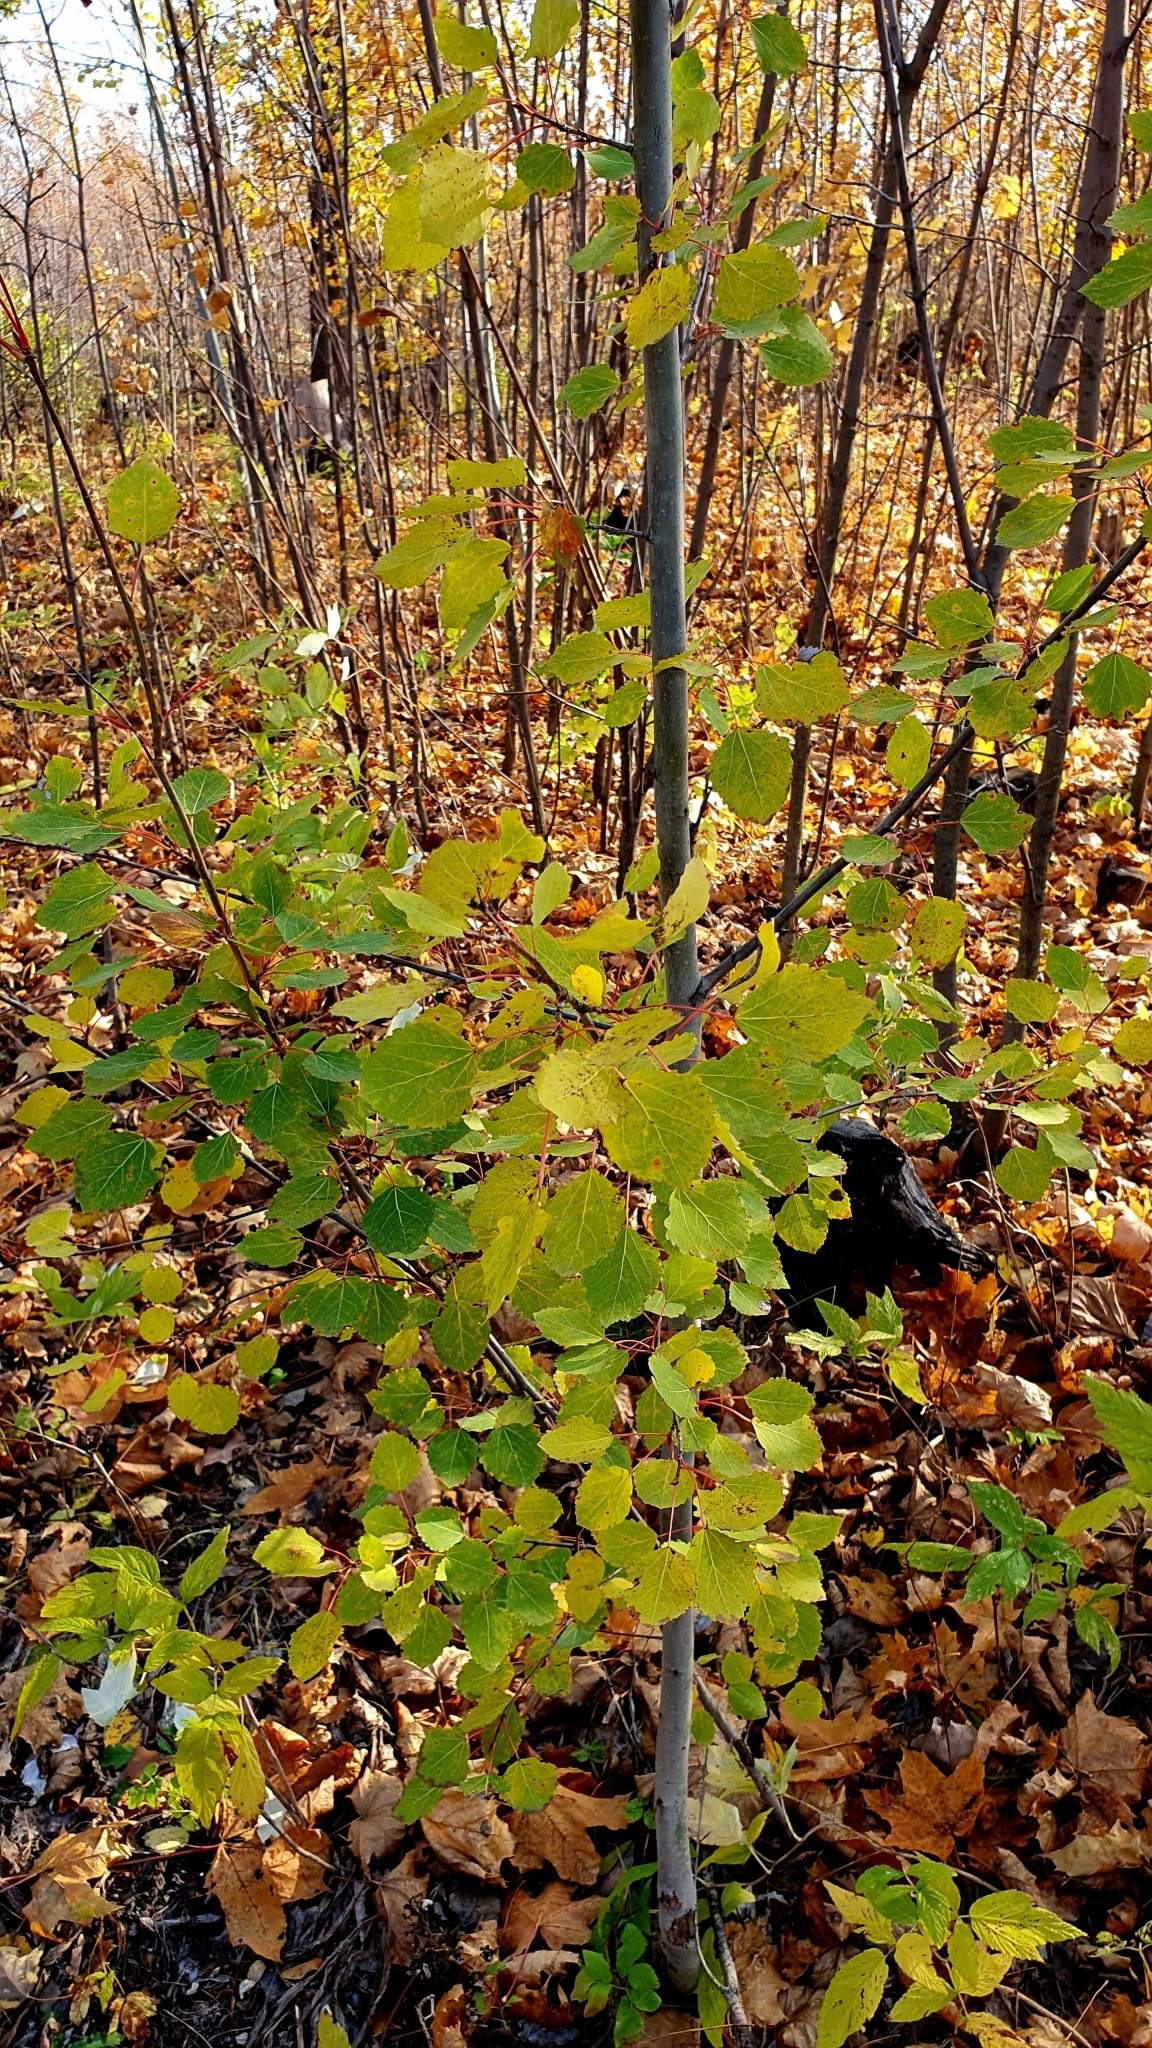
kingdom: Plantae
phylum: Tracheophyta
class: Magnoliopsida
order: Malpighiales
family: Salicaceae
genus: Populus
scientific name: Populus tremula
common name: European aspen
